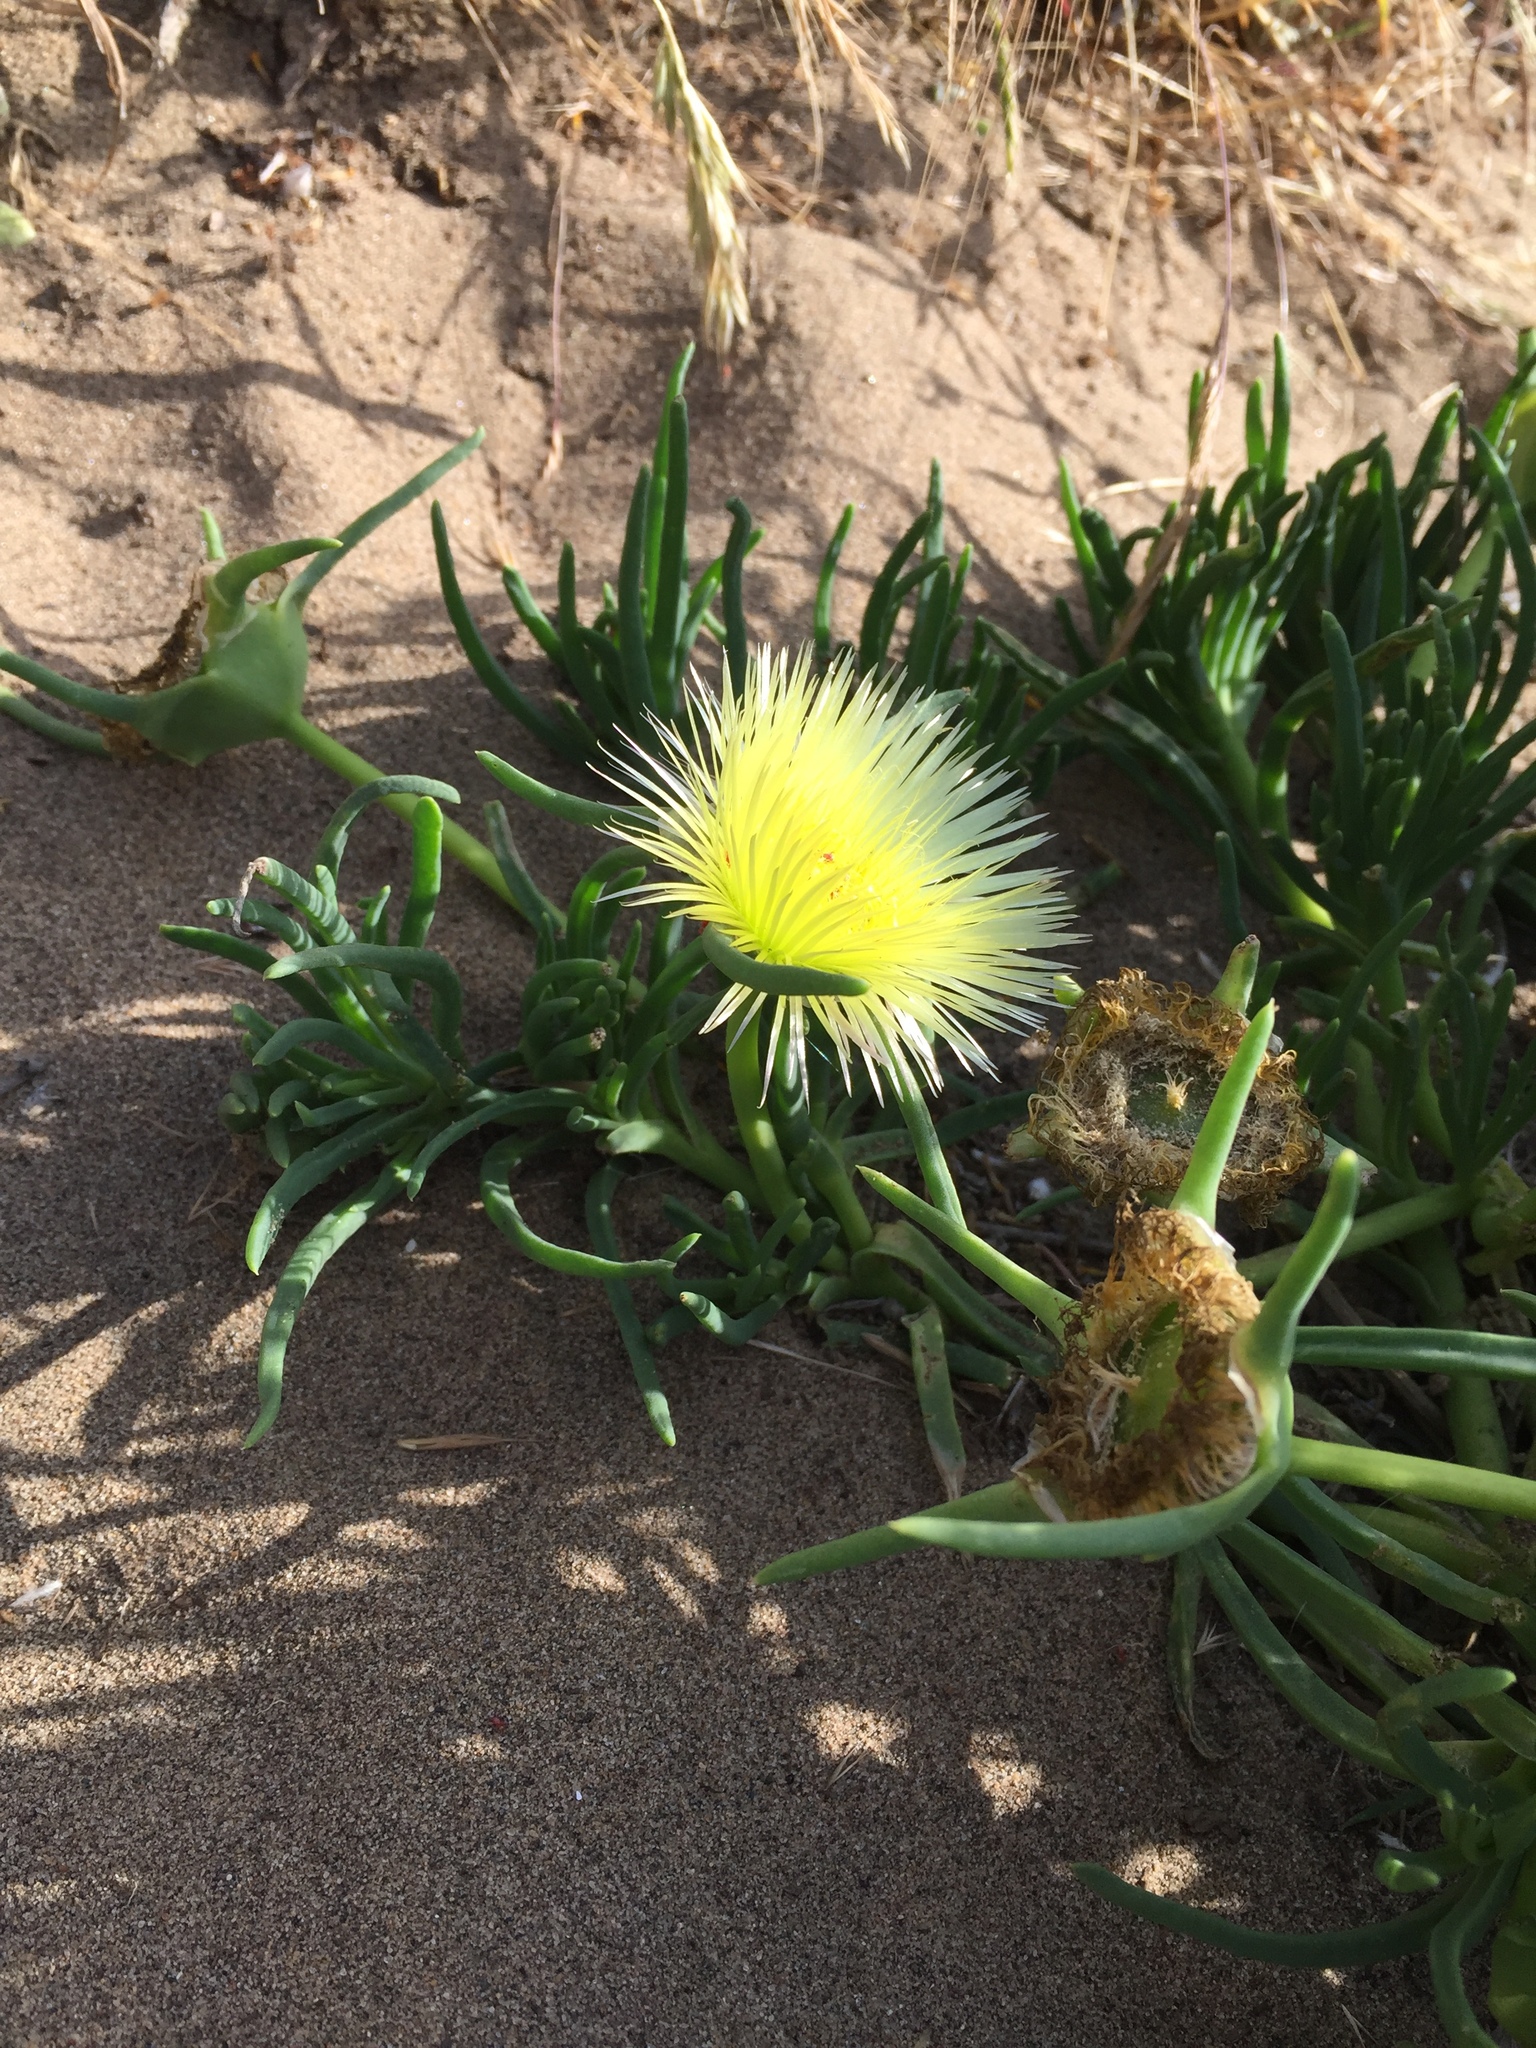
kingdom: Plantae
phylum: Tracheophyta
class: Magnoliopsida
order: Caryophyllales
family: Aizoaceae
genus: Conicosia
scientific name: Conicosia pugioniformis
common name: Narrow-leaved iceplant
